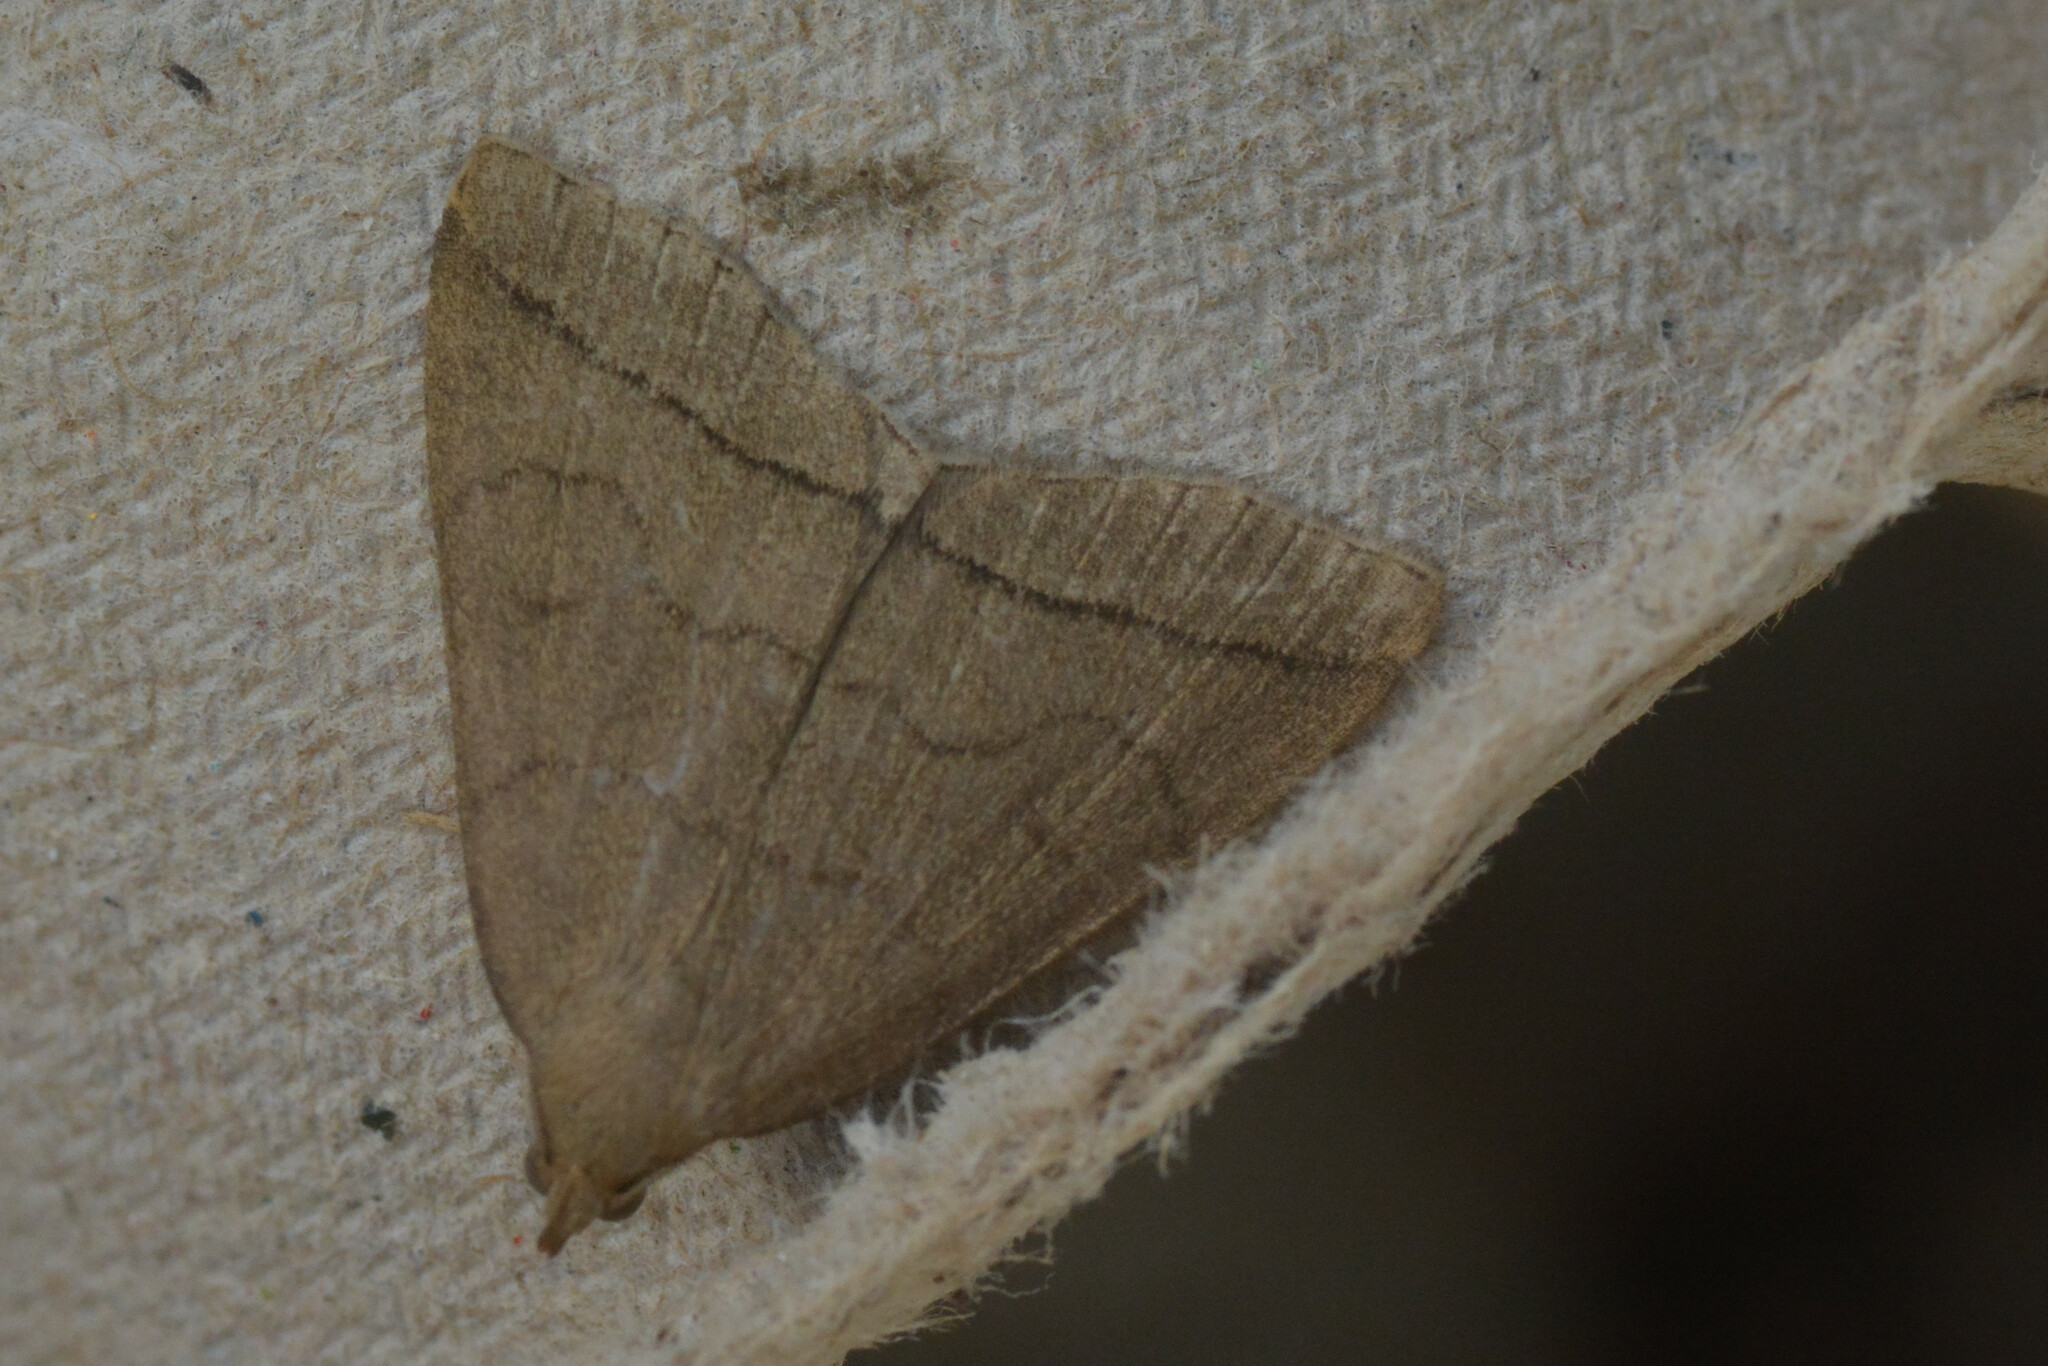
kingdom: Animalia
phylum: Arthropoda
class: Insecta
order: Lepidoptera
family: Erebidae
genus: Herminia
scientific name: Herminia tarsipennalis
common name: Fan-foot
